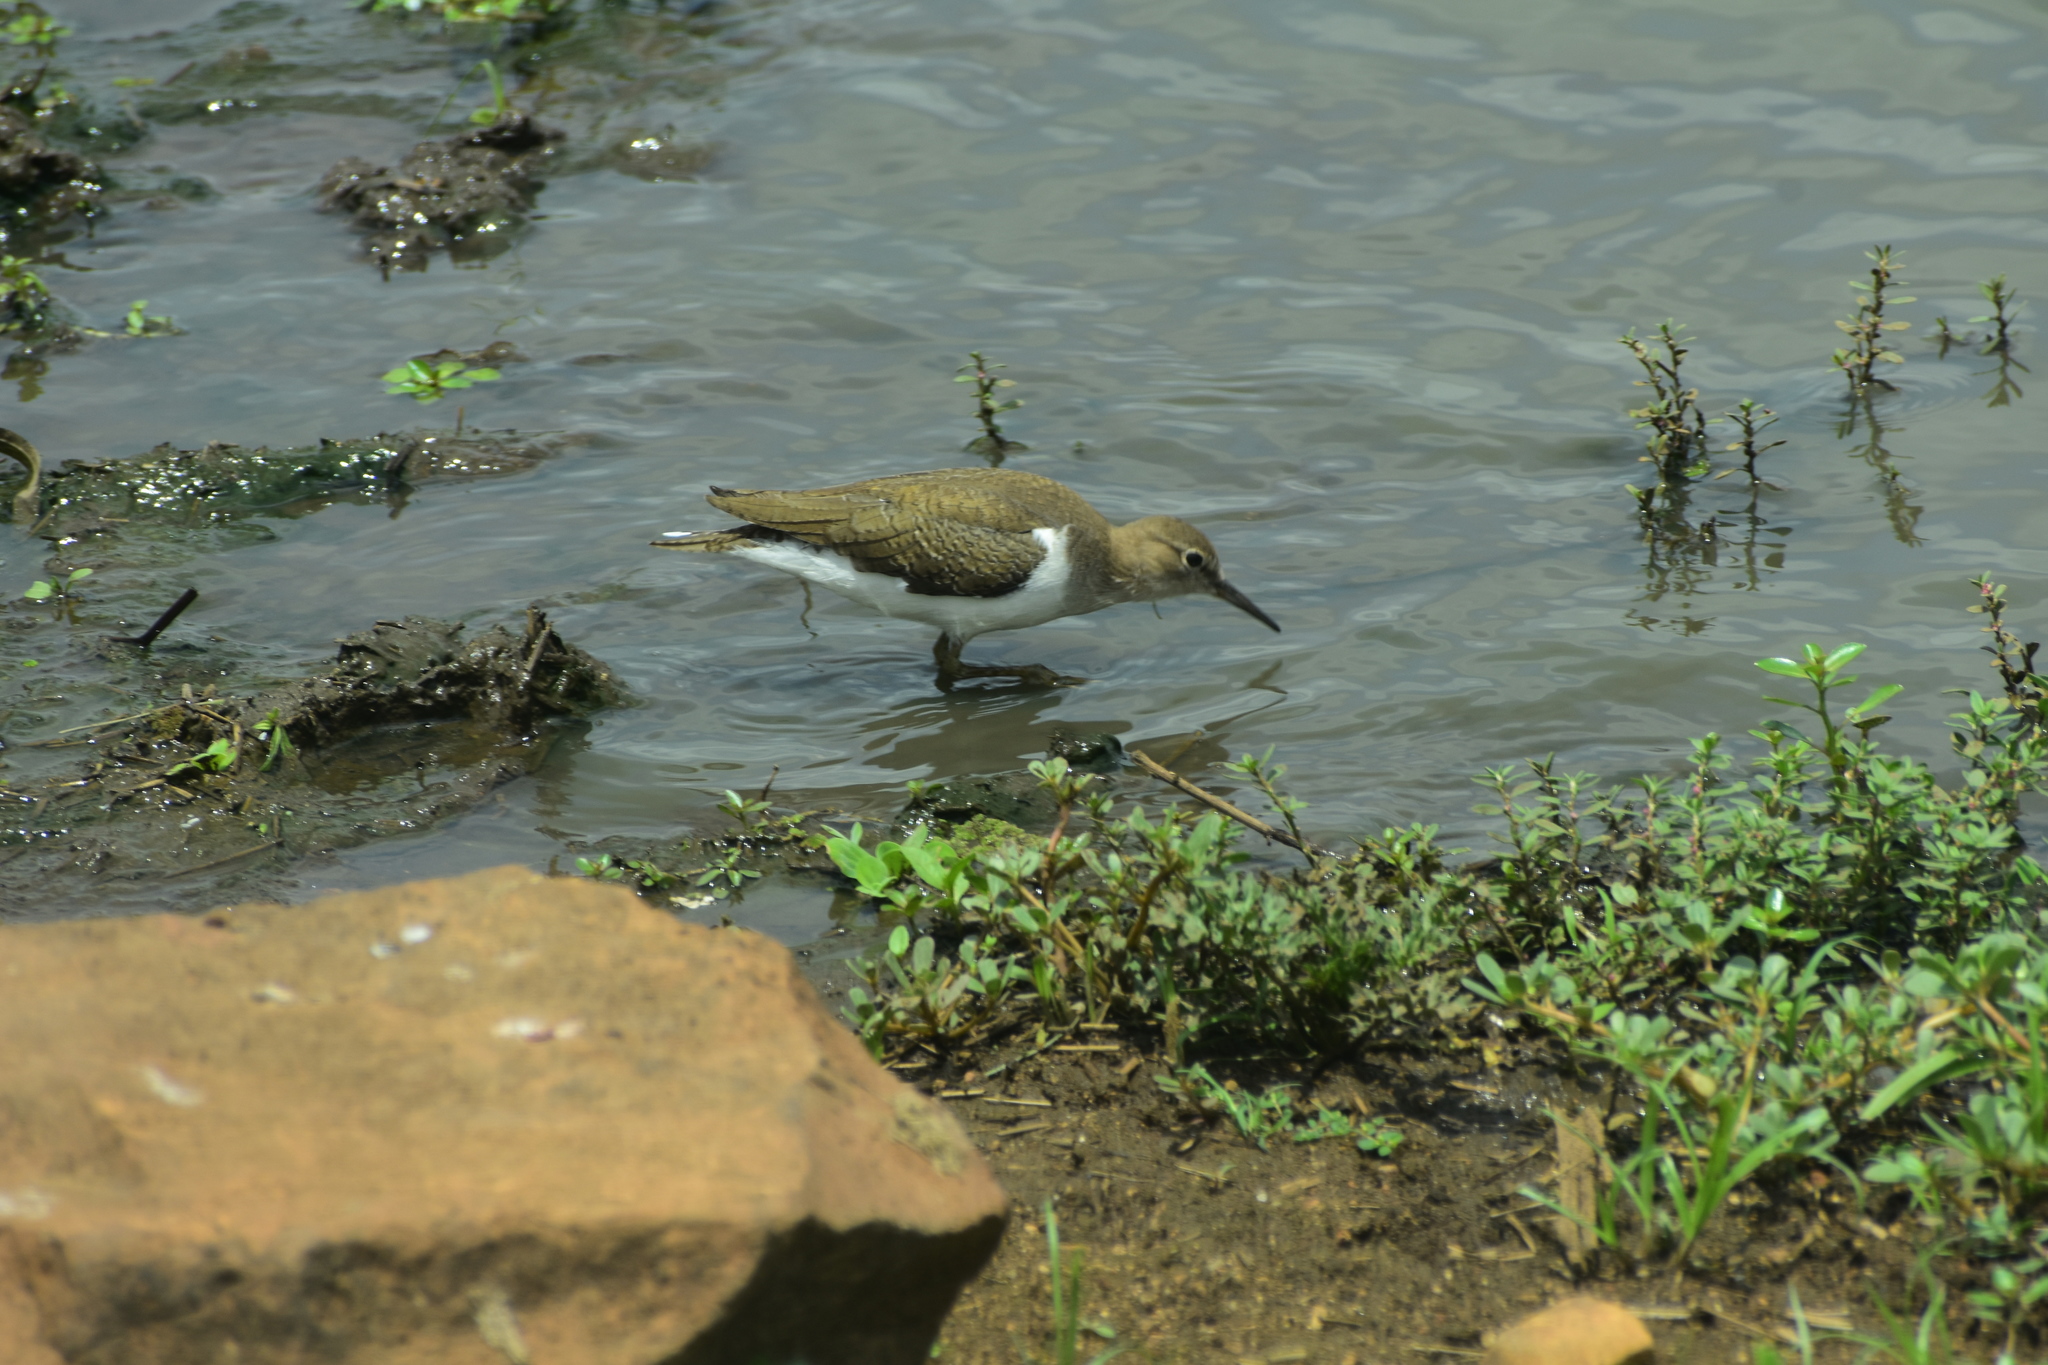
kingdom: Animalia
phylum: Chordata
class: Aves
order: Charadriiformes
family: Scolopacidae
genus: Actitis
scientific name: Actitis hypoleucos
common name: Common sandpiper
